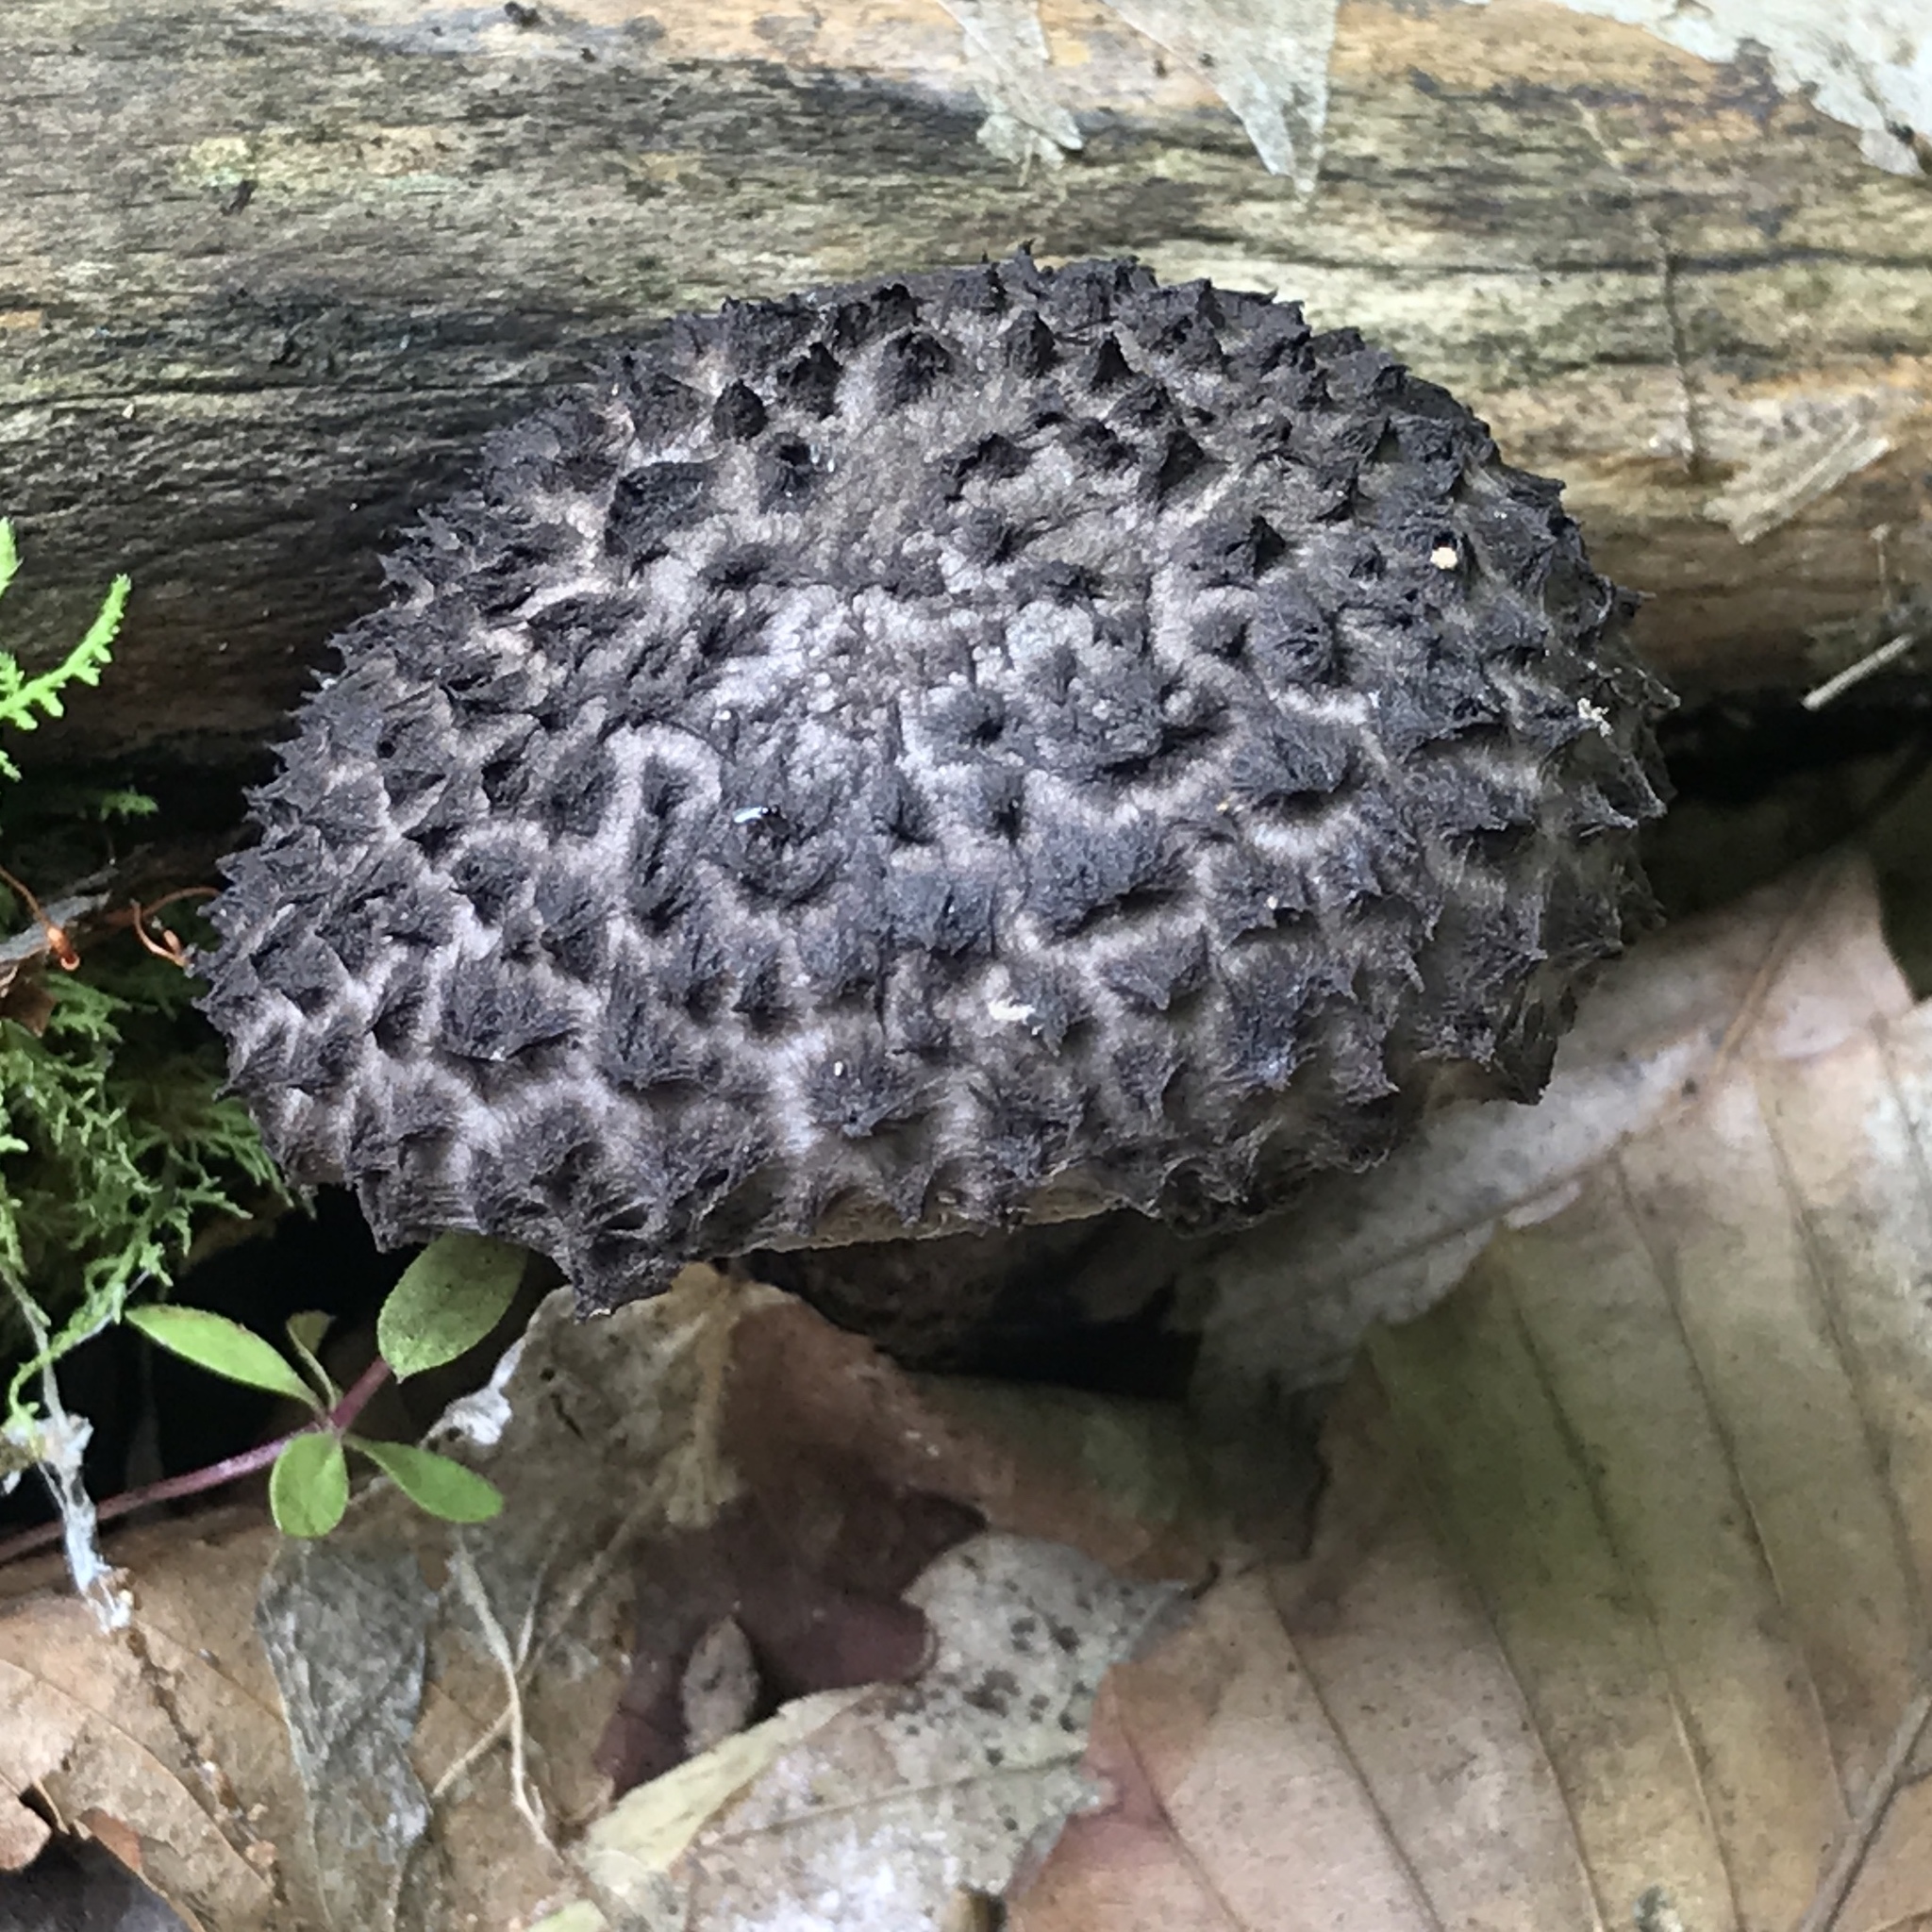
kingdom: Fungi
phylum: Basidiomycota
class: Agaricomycetes
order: Boletales
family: Boletaceae
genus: Strobilomyces
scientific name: Strobilomyces strobilaceus
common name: Old man of the woods
